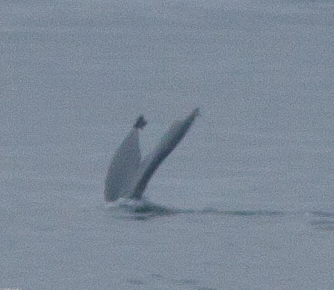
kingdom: Animalia
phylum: Chordata
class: Mammalia
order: Cetacea
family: Balaenopteridae
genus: Megaptera
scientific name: Megaptera novaeangliae
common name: Humpback whale
